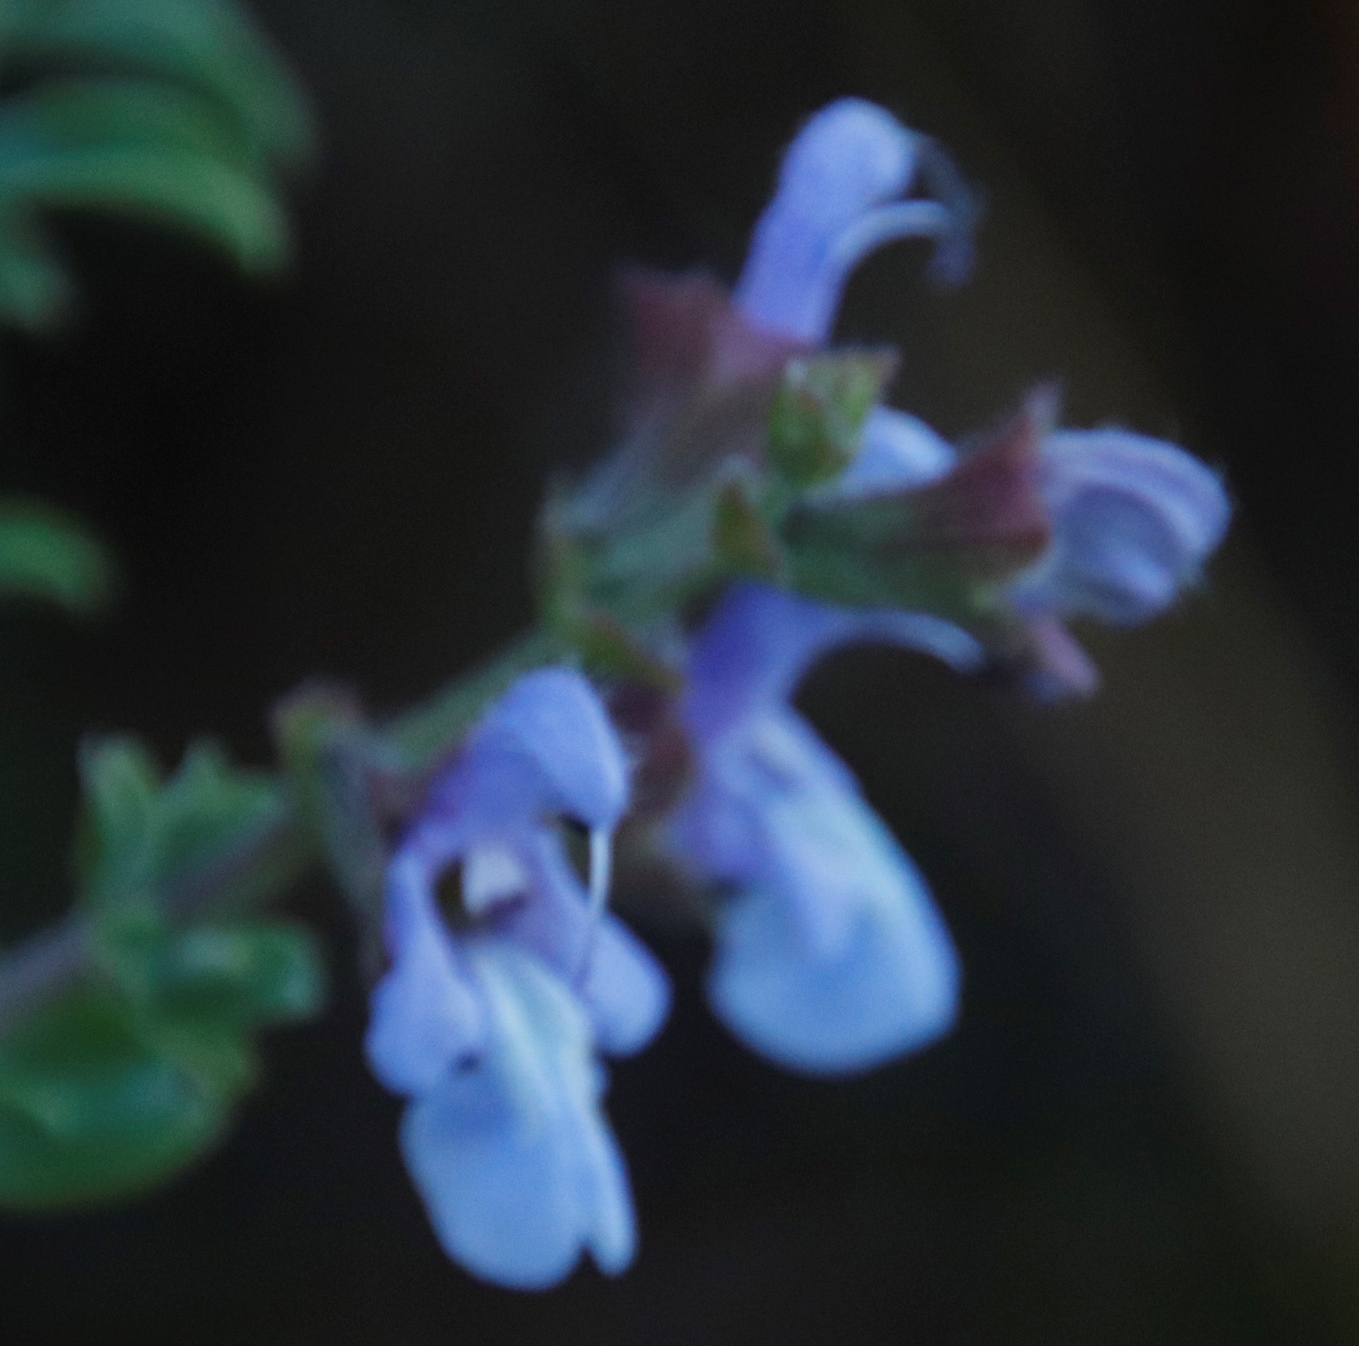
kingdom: Plantae
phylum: Tracheophyta
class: Magnoliopsida
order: Lamiales
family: Lamiaceae
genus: Salvia
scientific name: Salvia africana
